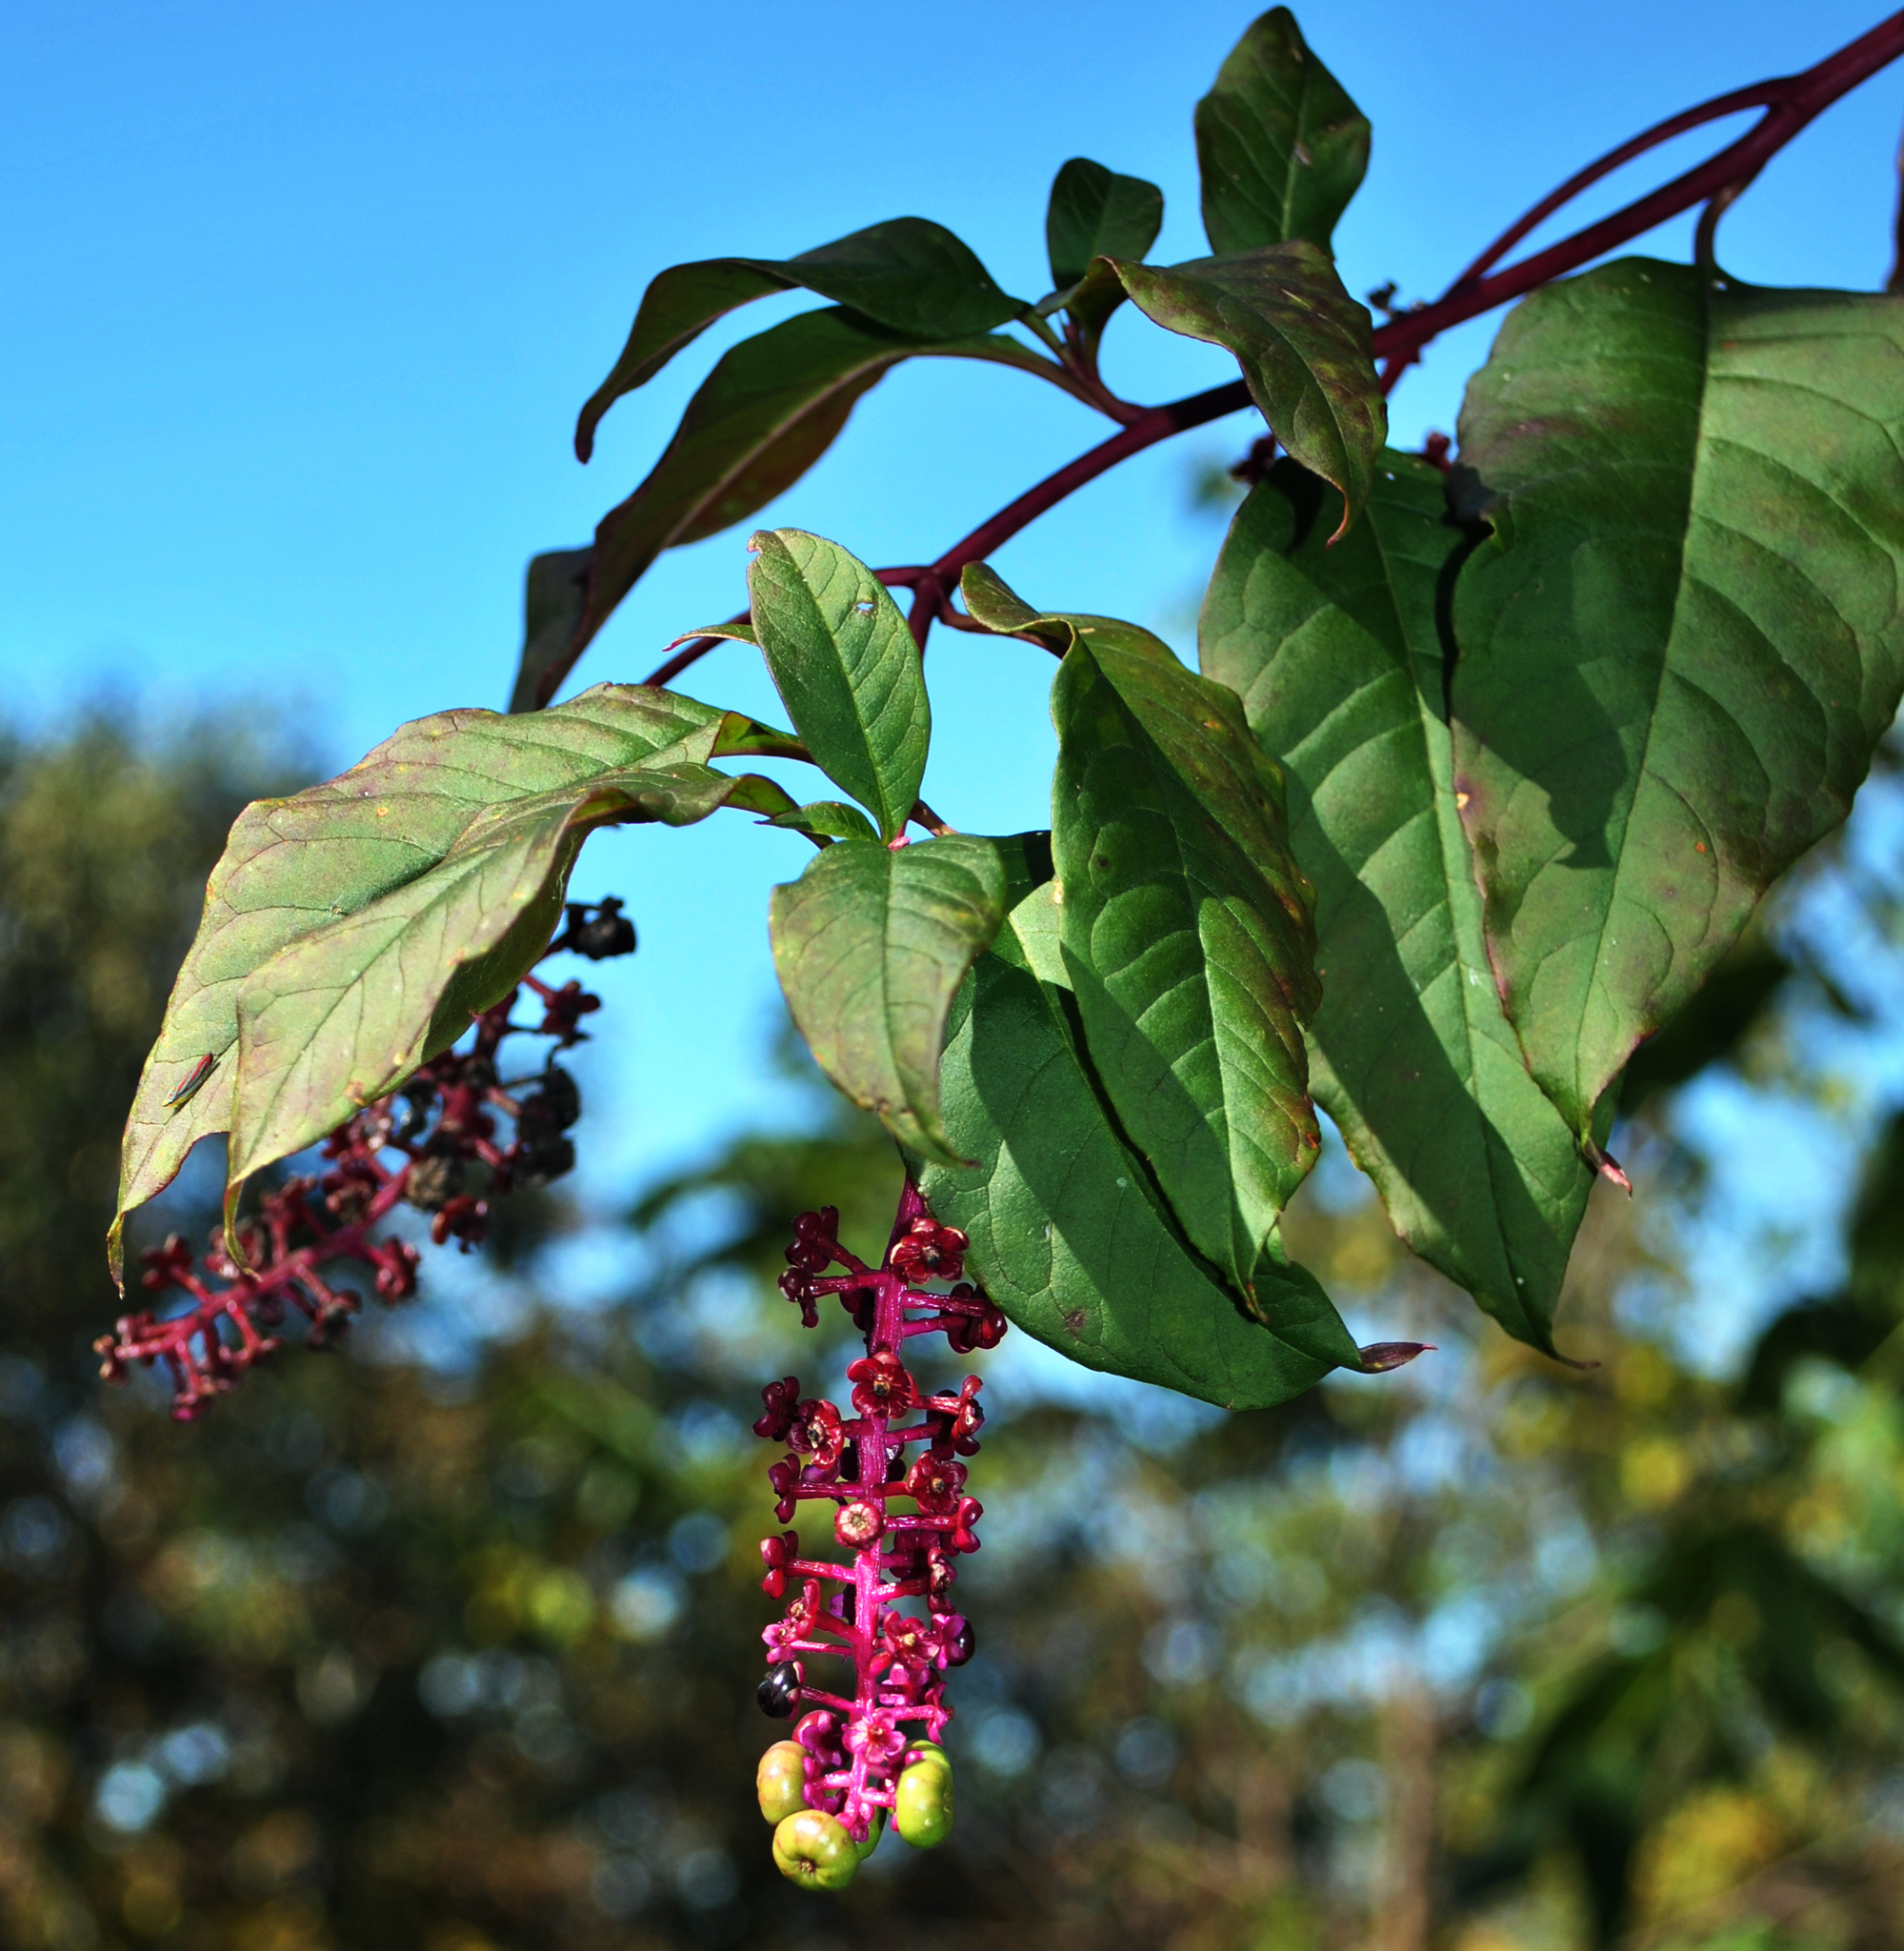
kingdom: Plantae
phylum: Tracheophyta
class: Magnoliopsida
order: Caryophyllales
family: Phytolaccaceae
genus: Phytolacca
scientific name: Phytolacca americana
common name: American pokeweed
